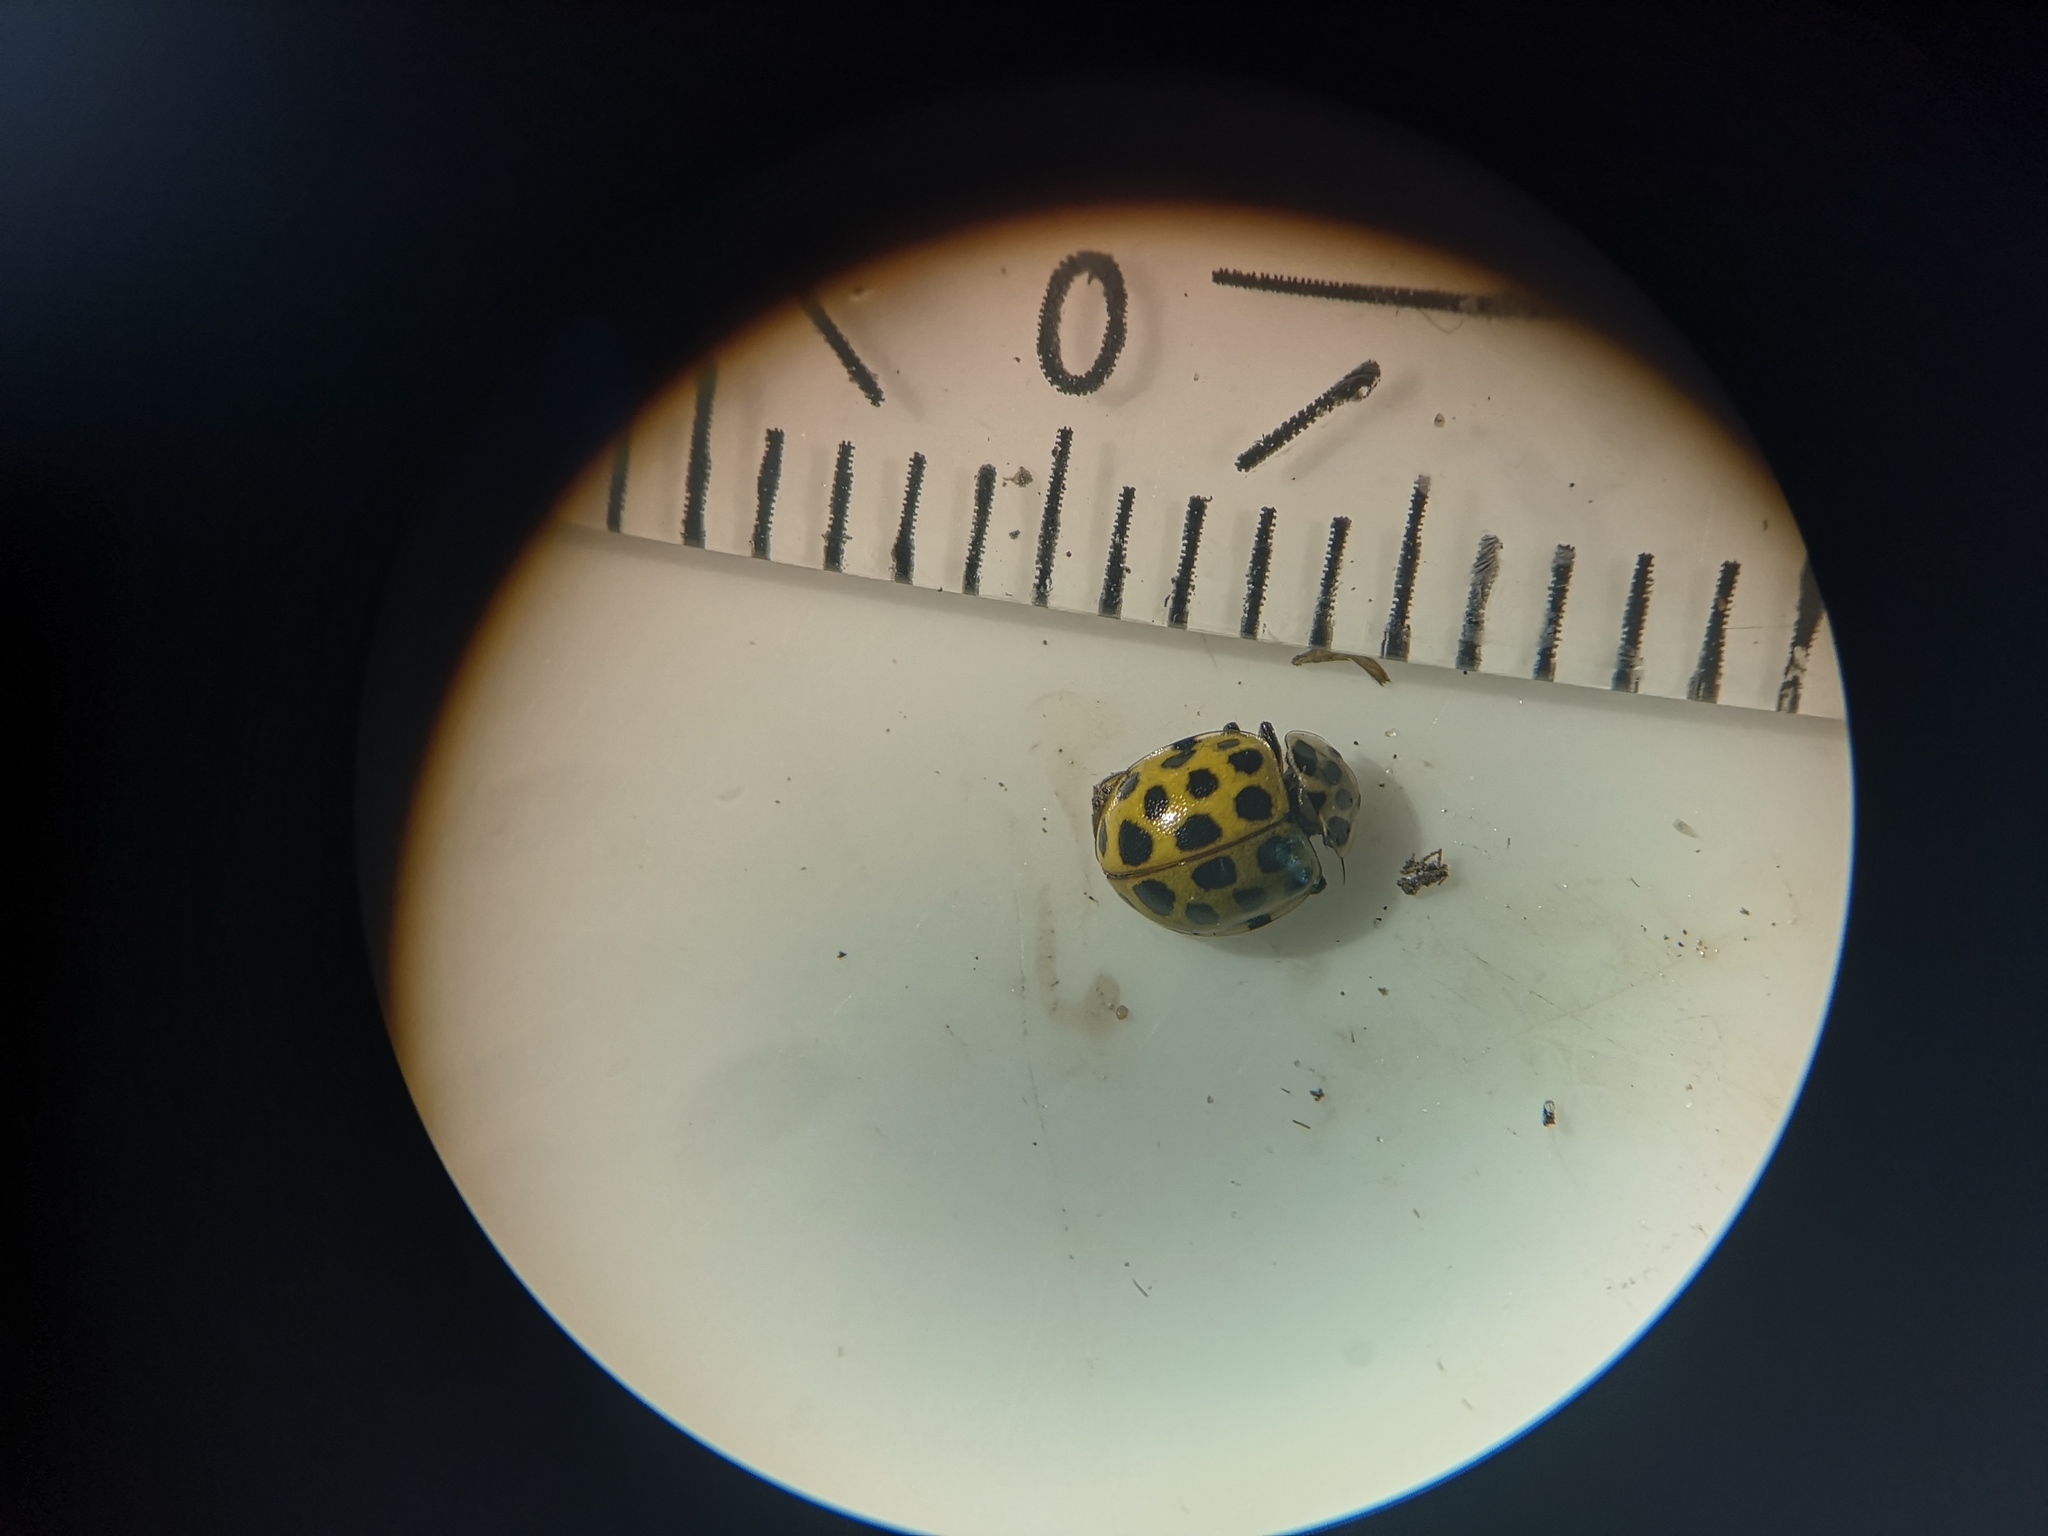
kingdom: Animalia
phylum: Arthropoda
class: Insecta
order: Coleoptera
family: Coccinellidae
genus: Psyllobora
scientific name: Psyllobora vigintiduopunctata
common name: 22-spot ladybird
